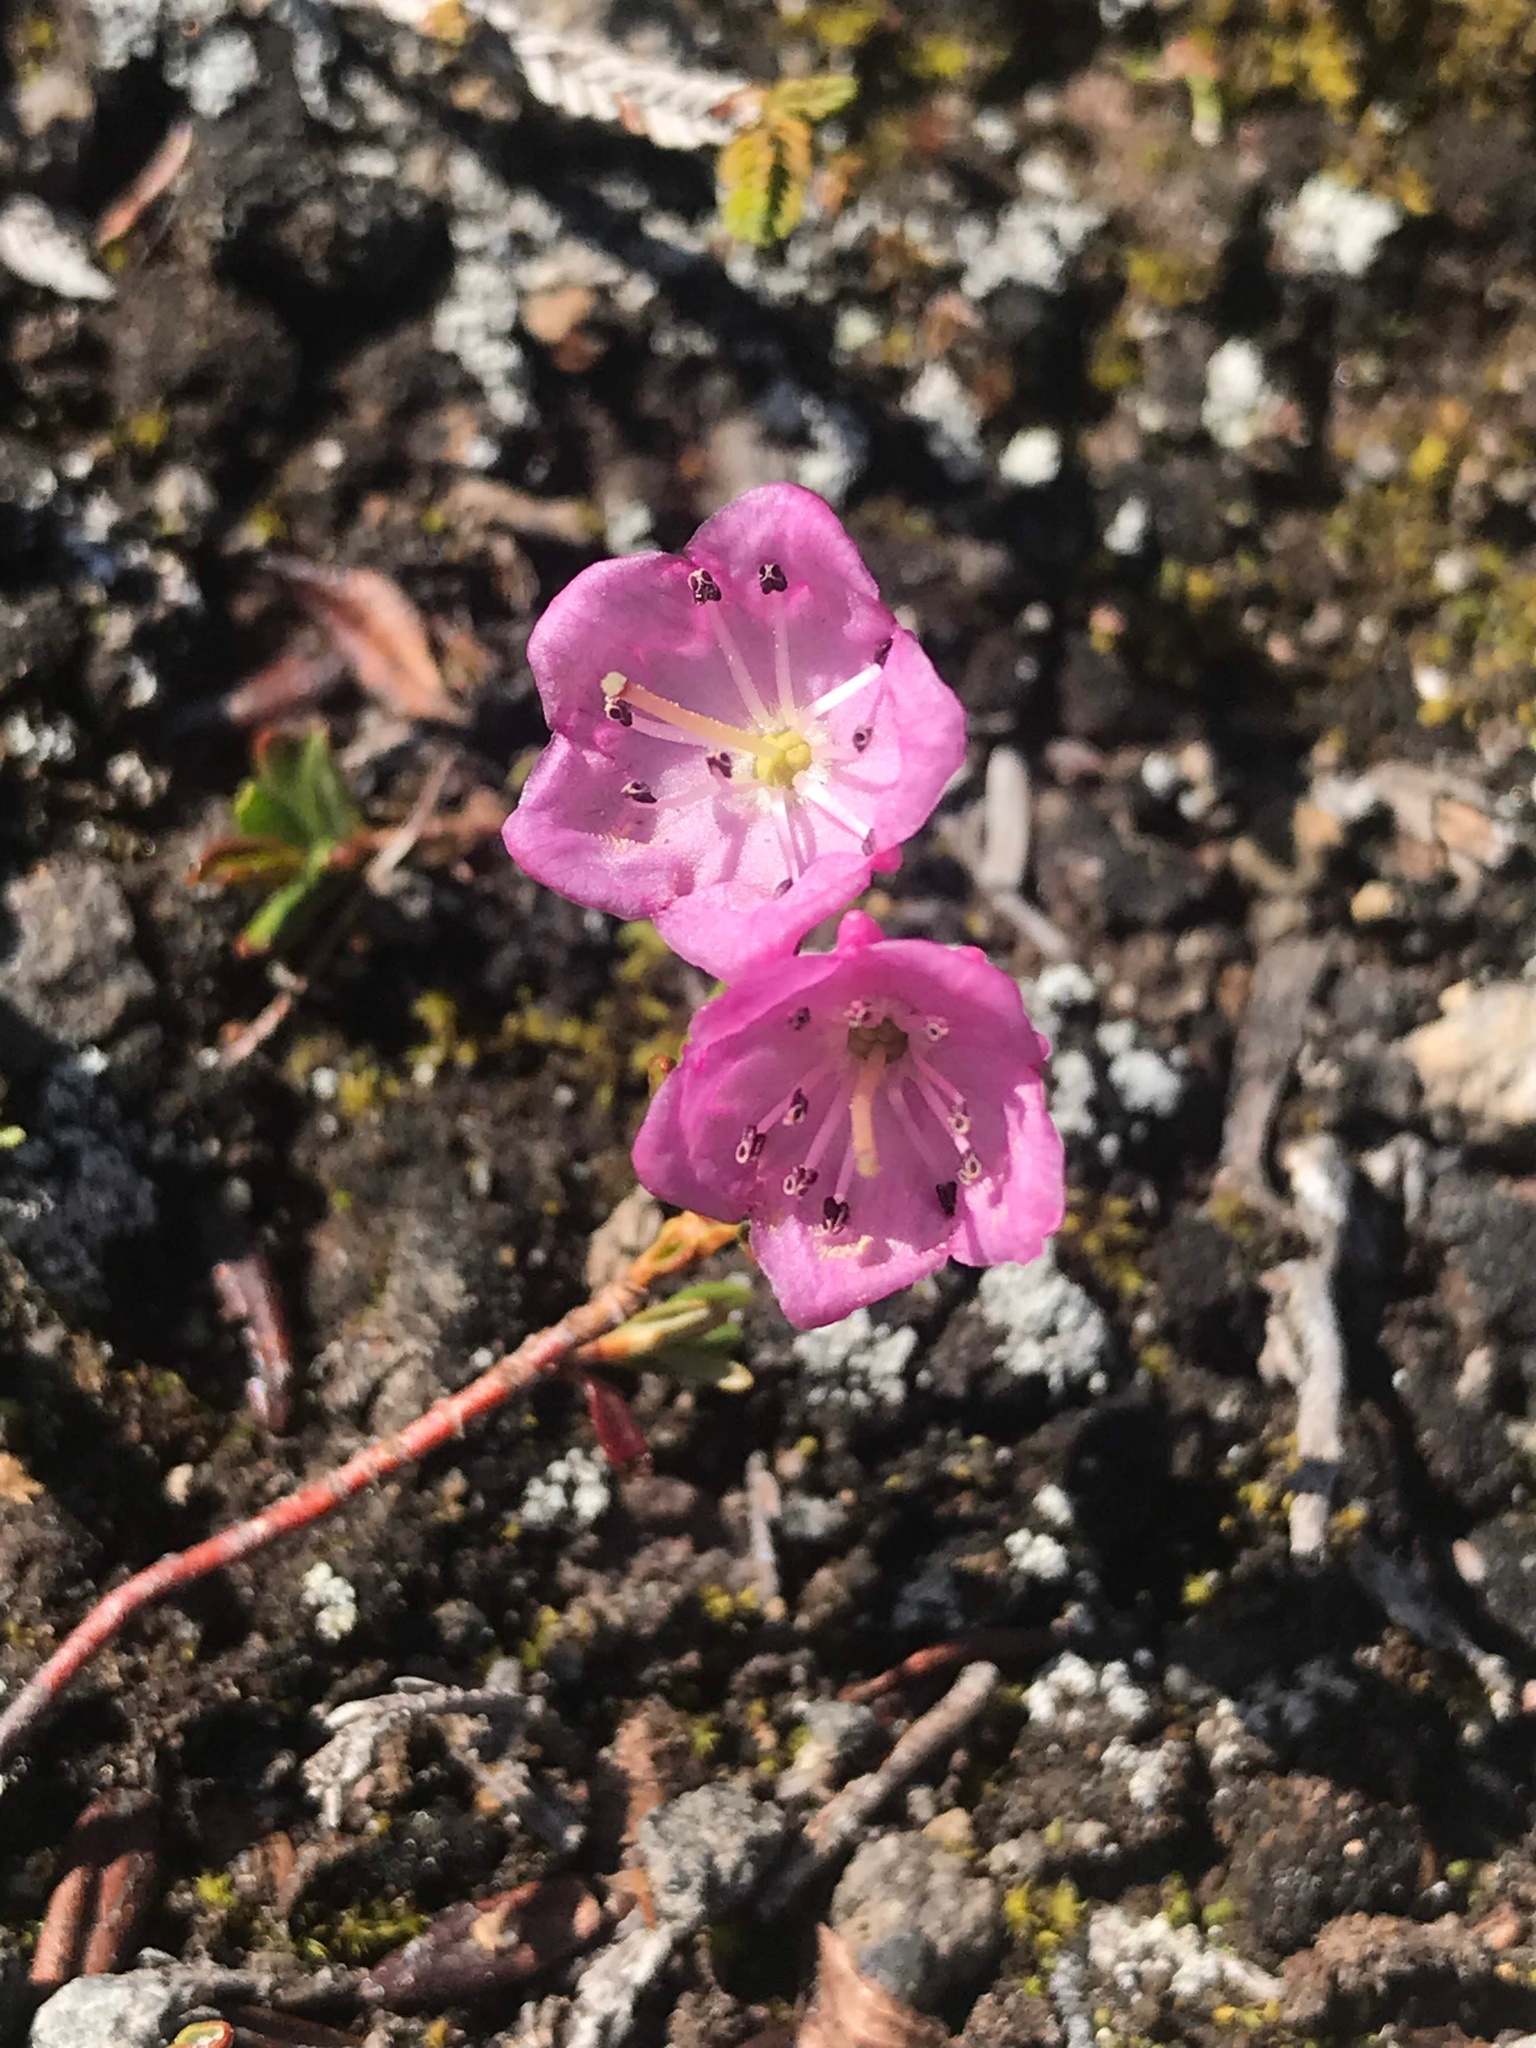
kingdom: Plantae
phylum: Tracheophyta
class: Magnoliopsida
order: Ericales
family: Ericaceae
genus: Kalmia
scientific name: Kalmia microphylla
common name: Alpine bog laurel
